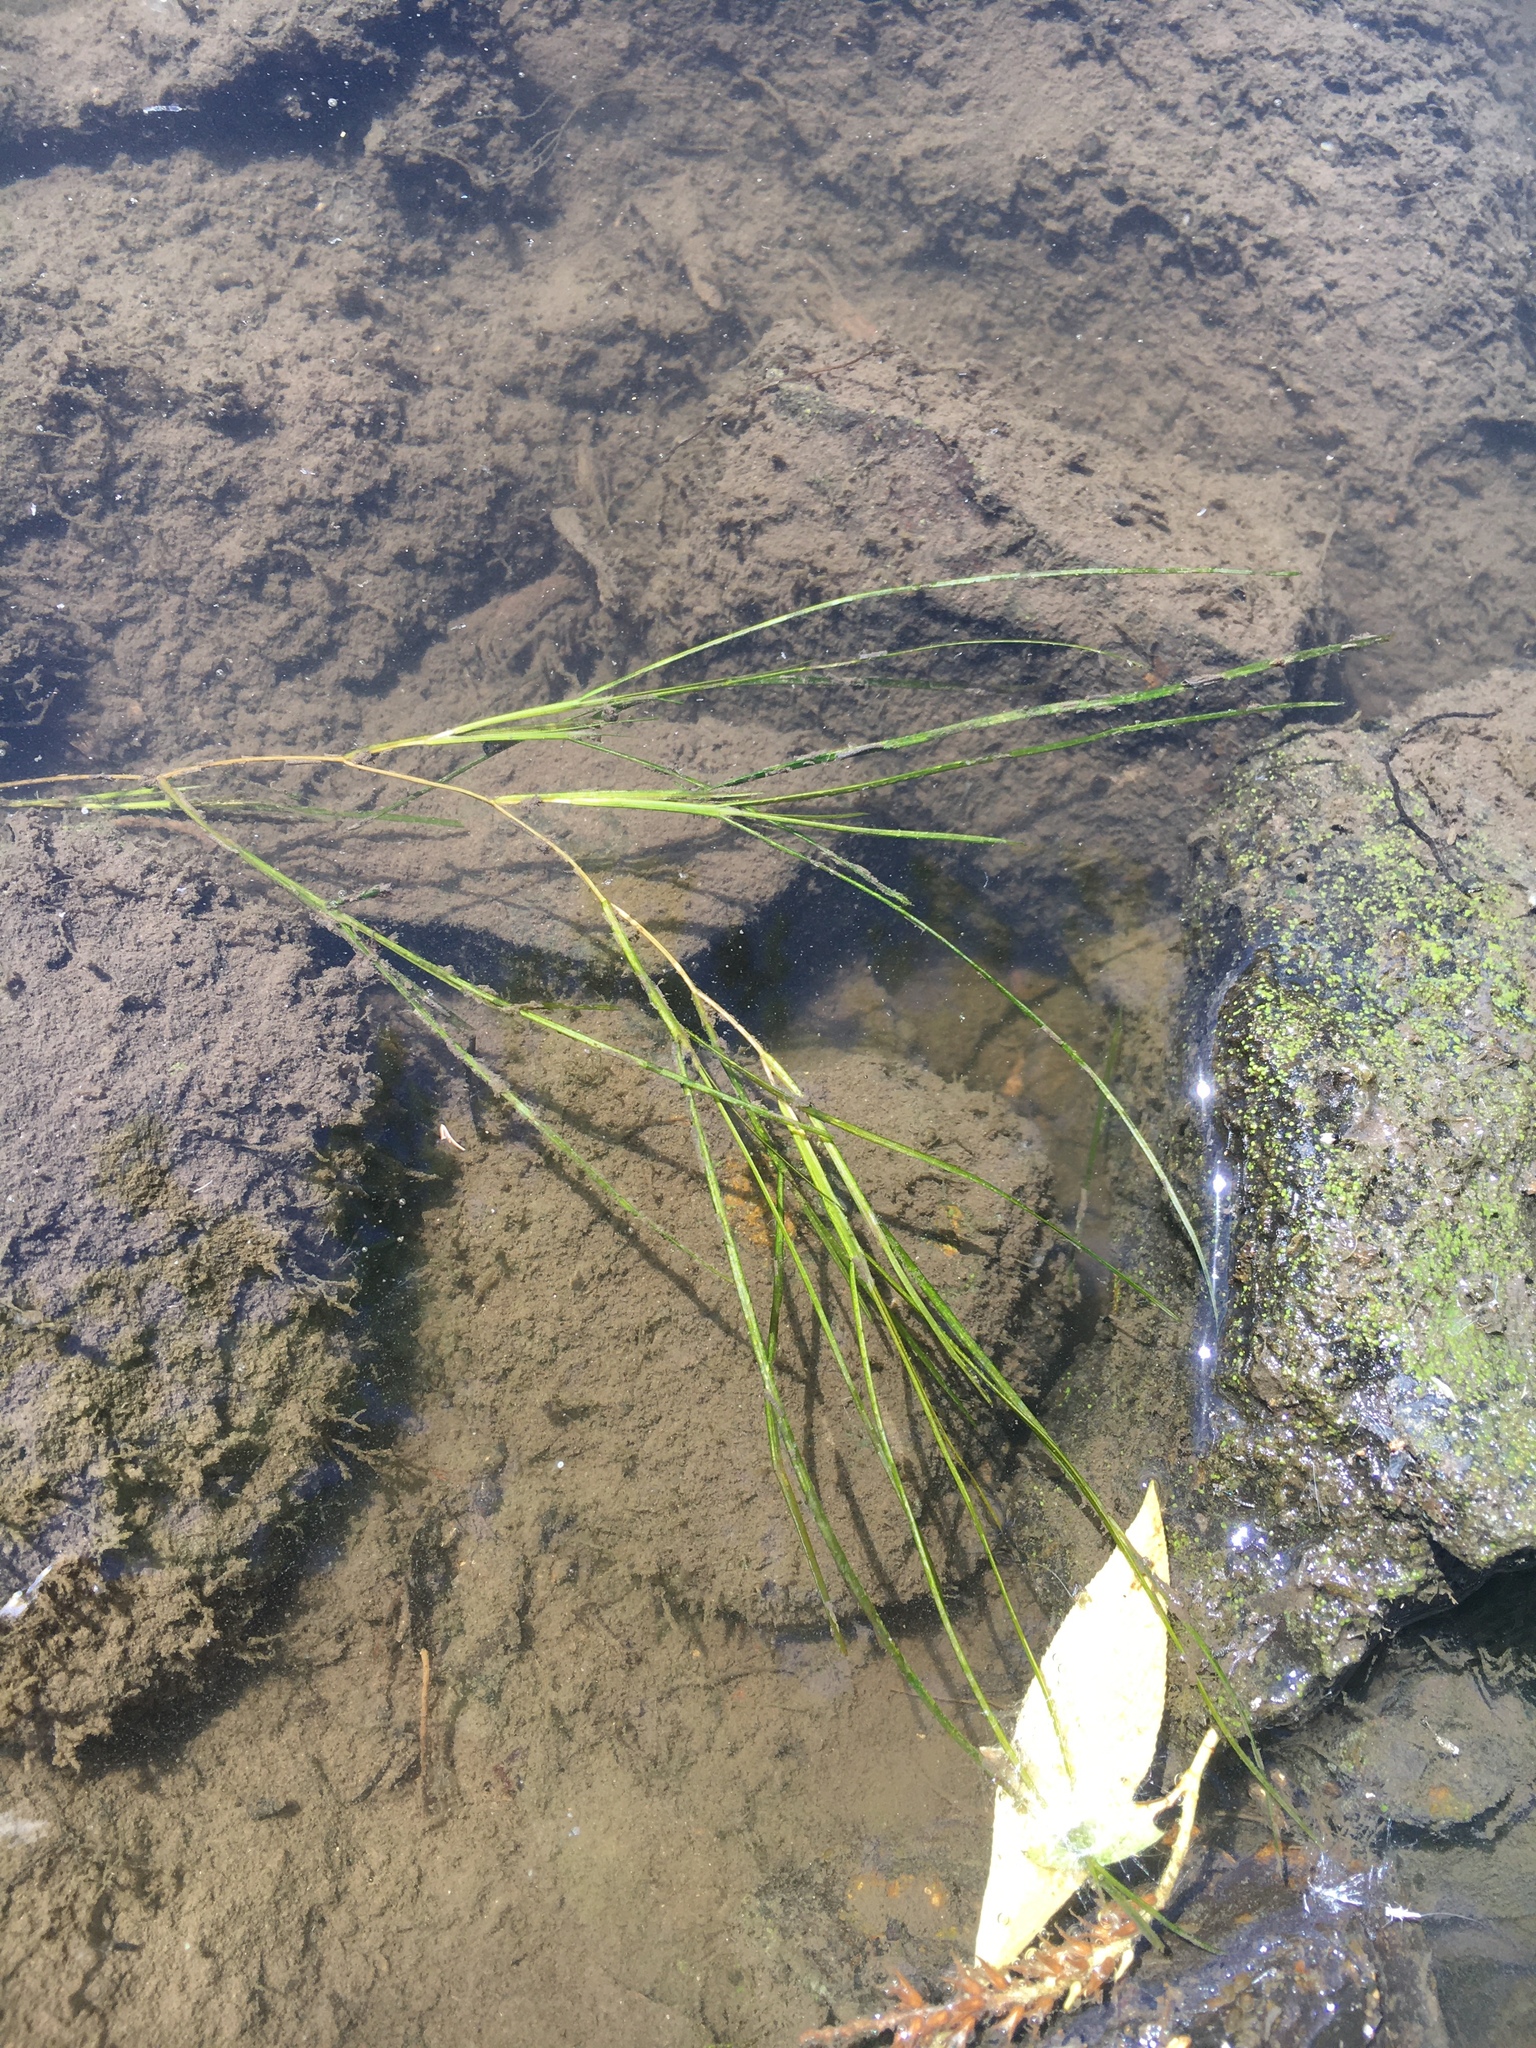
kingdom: Plantae
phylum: Tracheophyta
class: Liliopsida
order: Alismatales
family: Potamogetonaceae
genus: Stuckenia
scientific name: Stuckenia pectinata
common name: Sago pondweed
